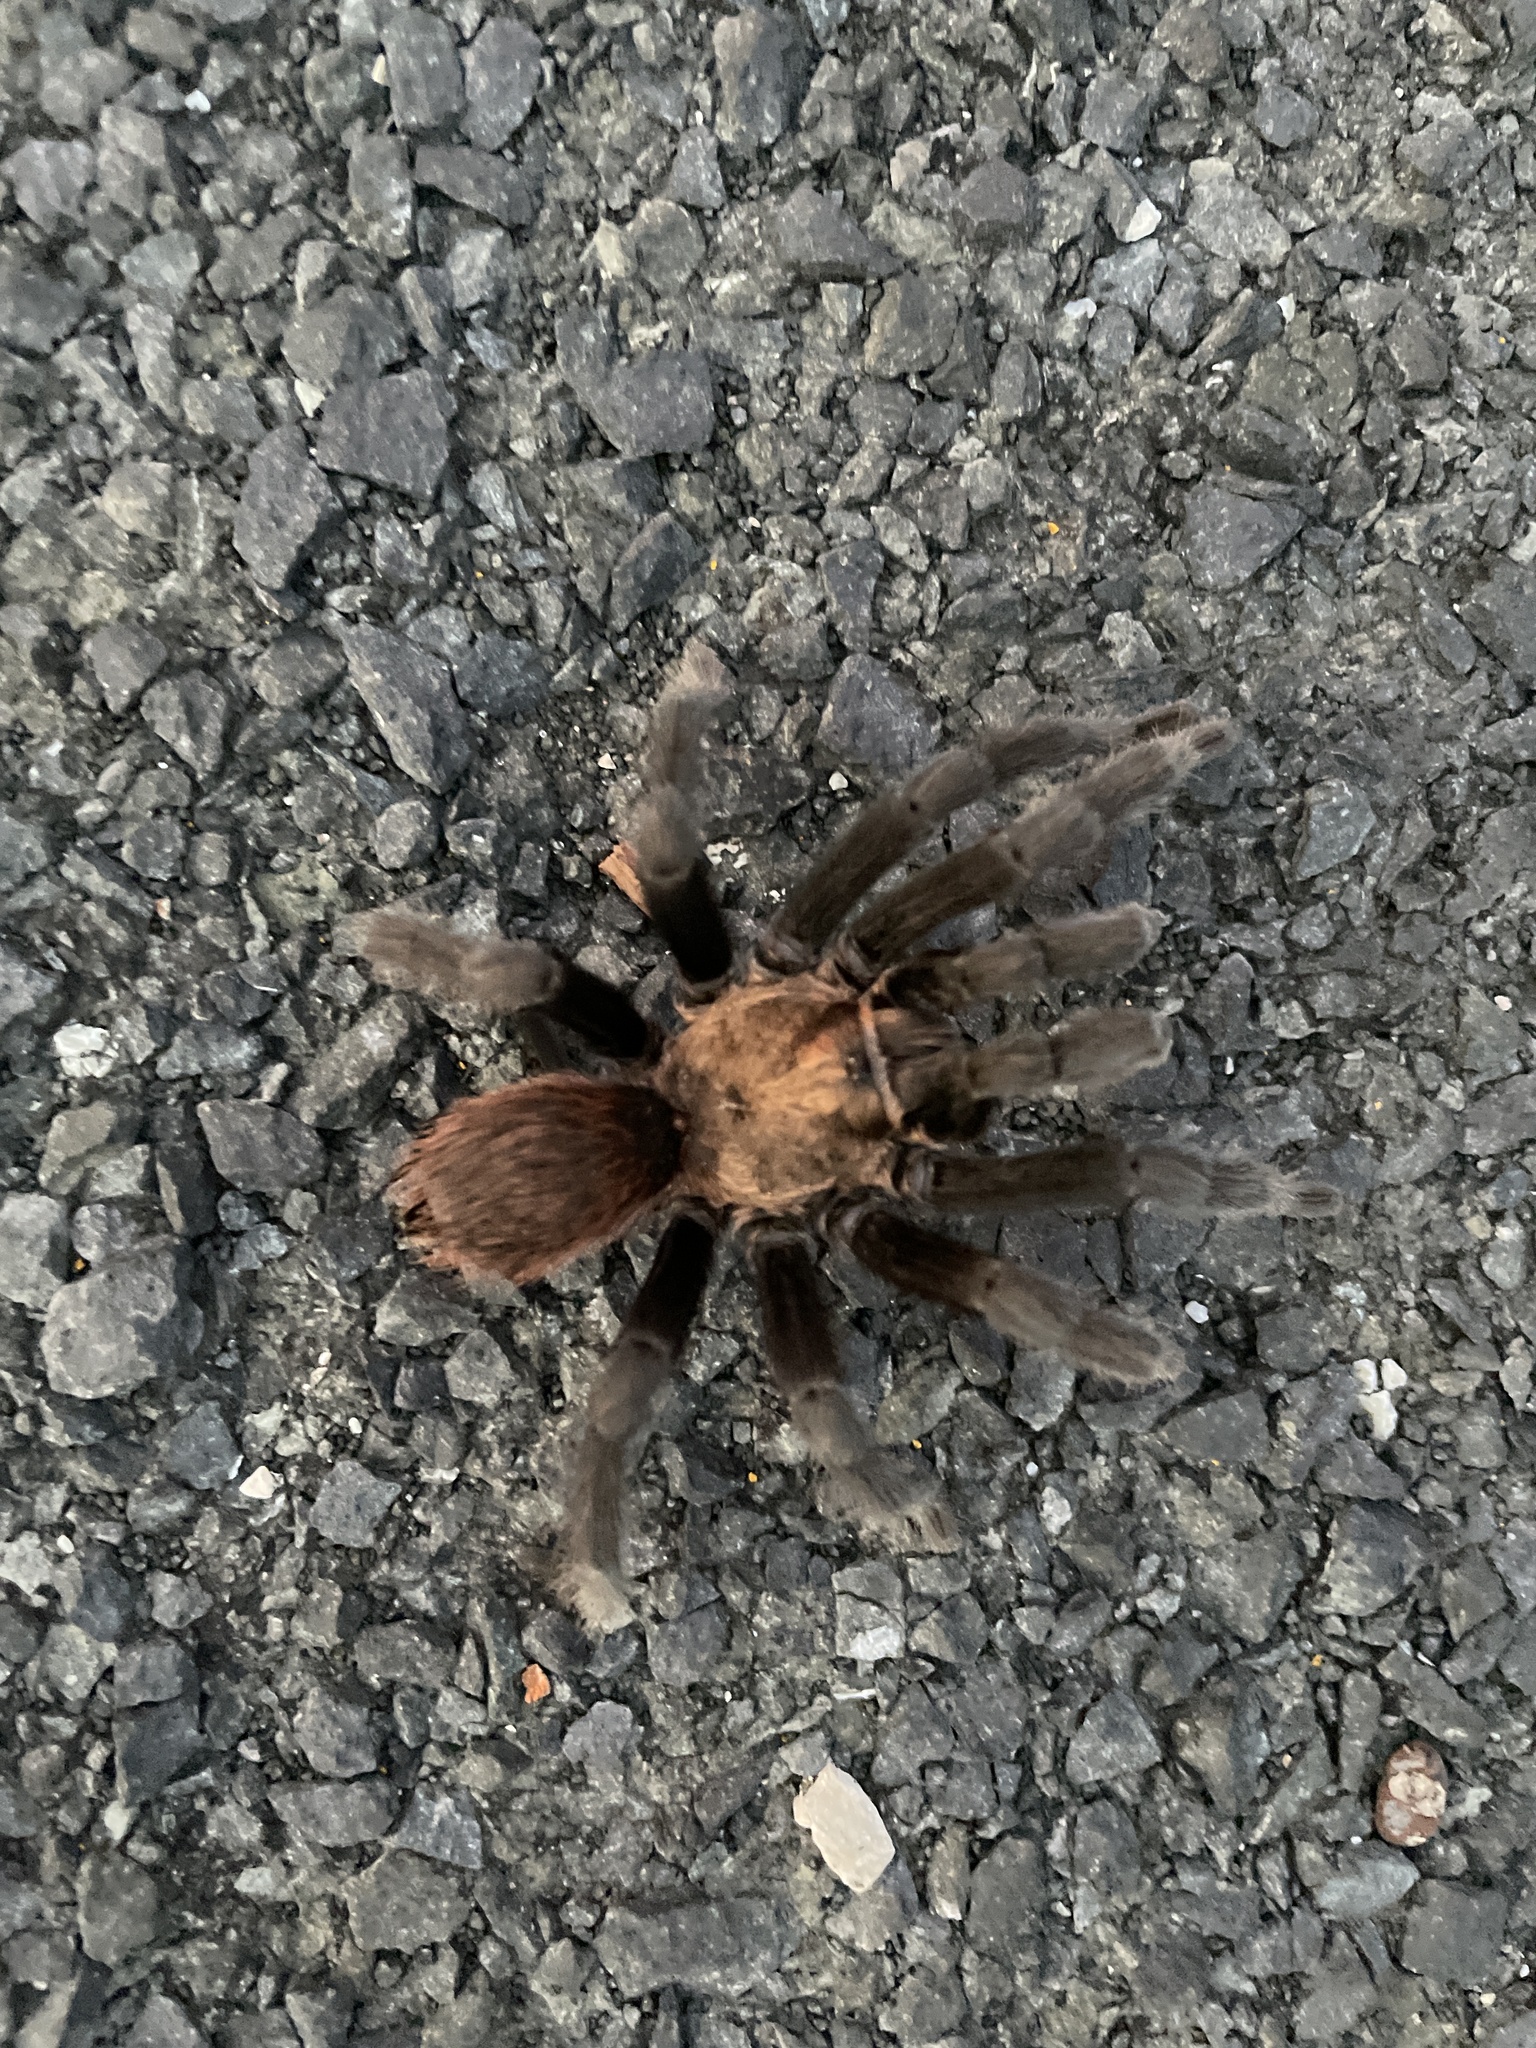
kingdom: Animalia
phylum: Arthropoda
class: Arachnida
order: Araneae
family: Theraphosidae
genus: Aphonopelma
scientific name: Aphonopelma anax
